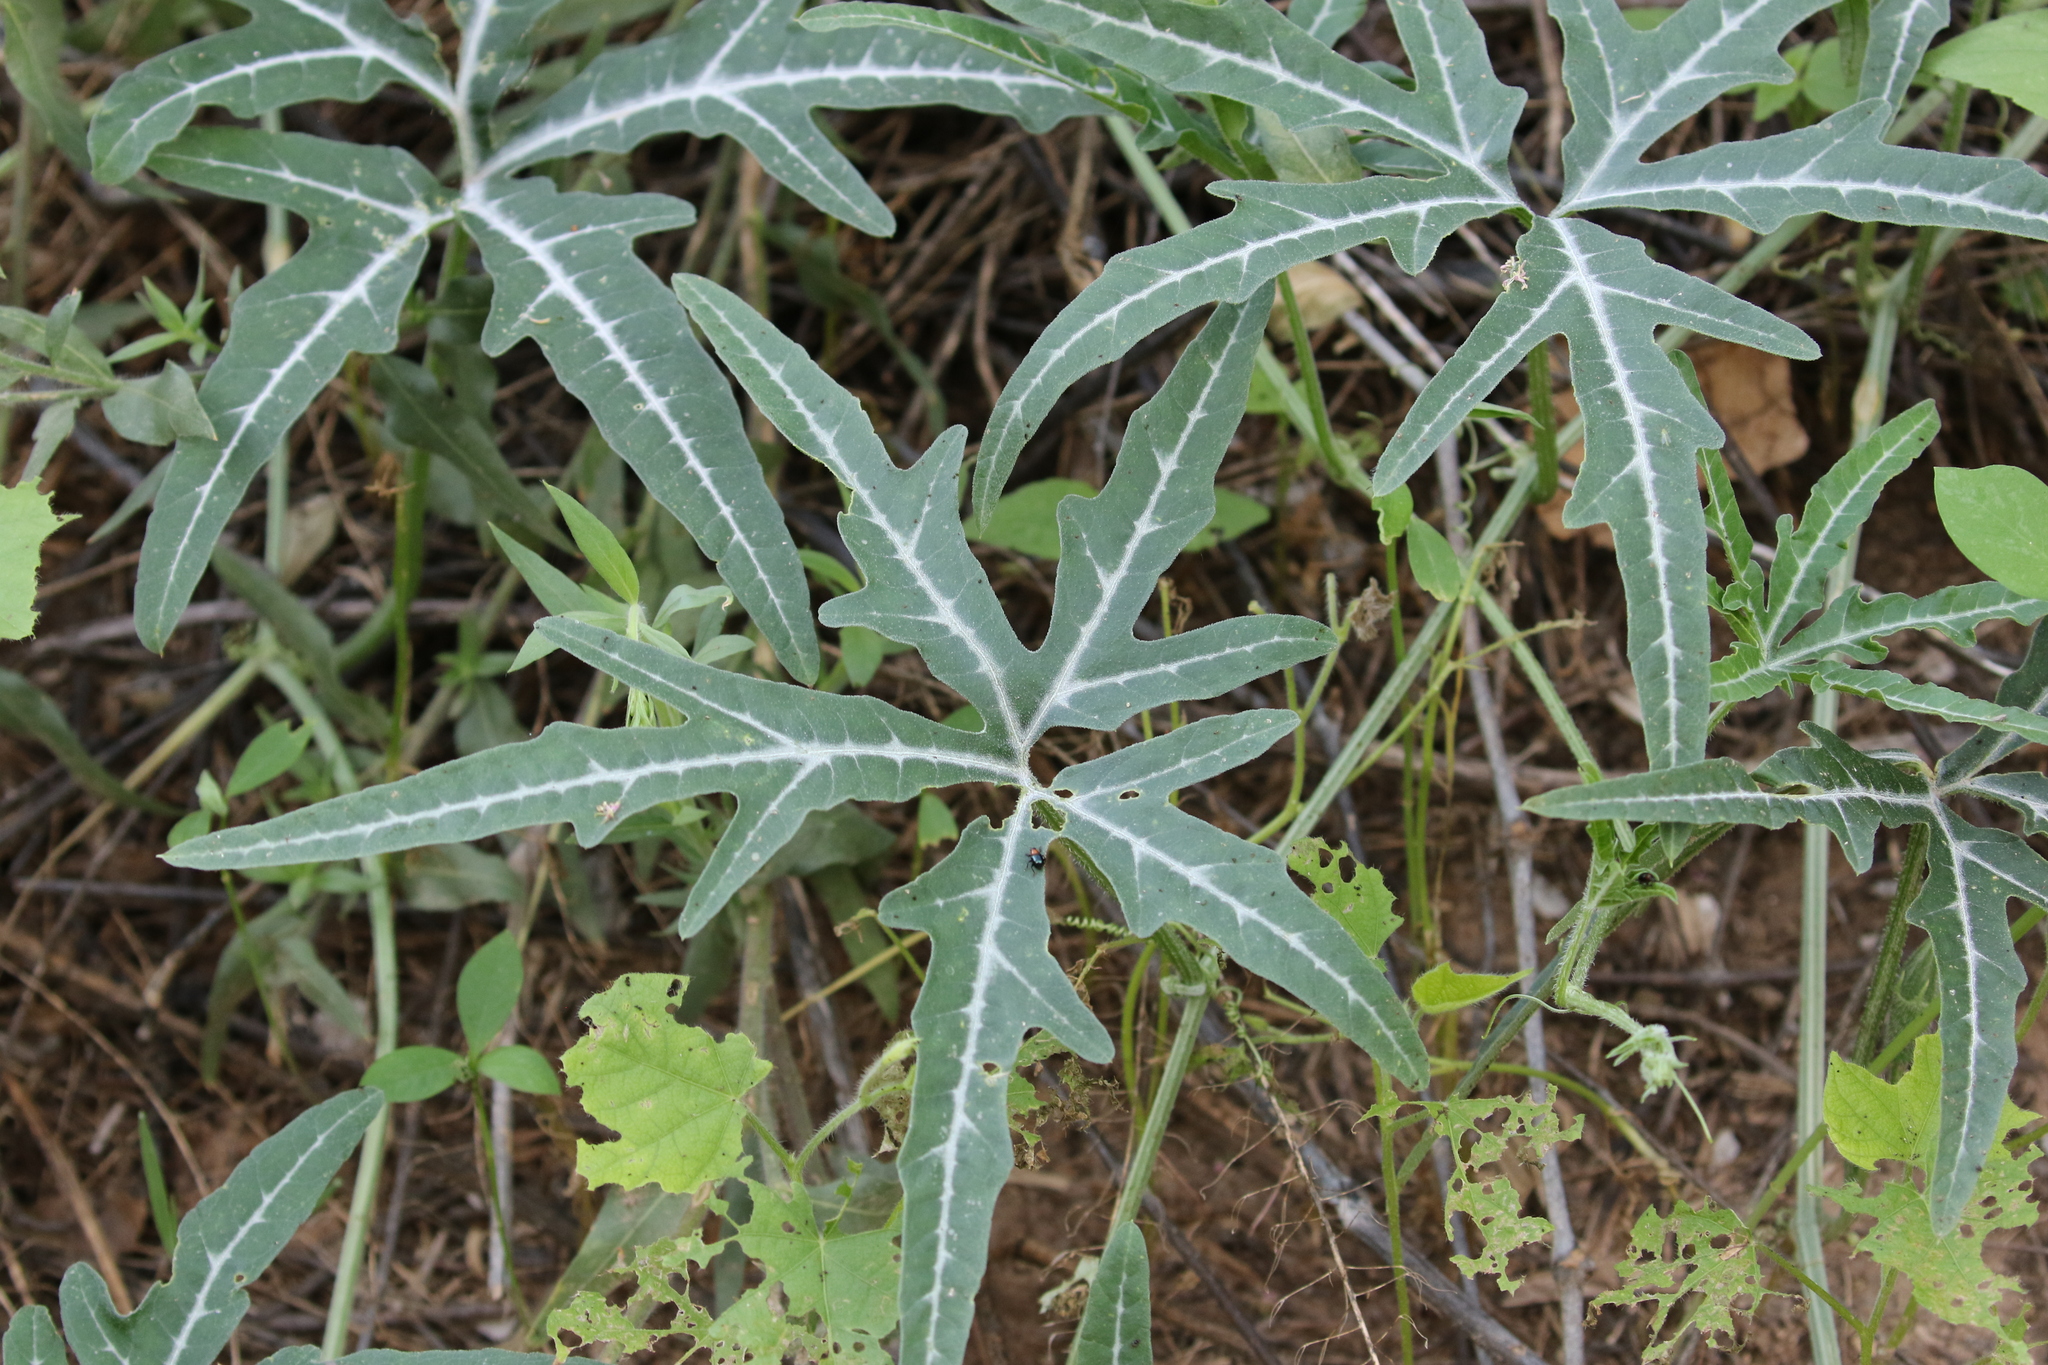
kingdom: Plantae
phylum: Tracheophyta
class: Magnoliopsida
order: Cucurbitales
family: Cucurbitaceae
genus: Cucurbita
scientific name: Cucurbita digitata
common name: Finger-leaf gourd
